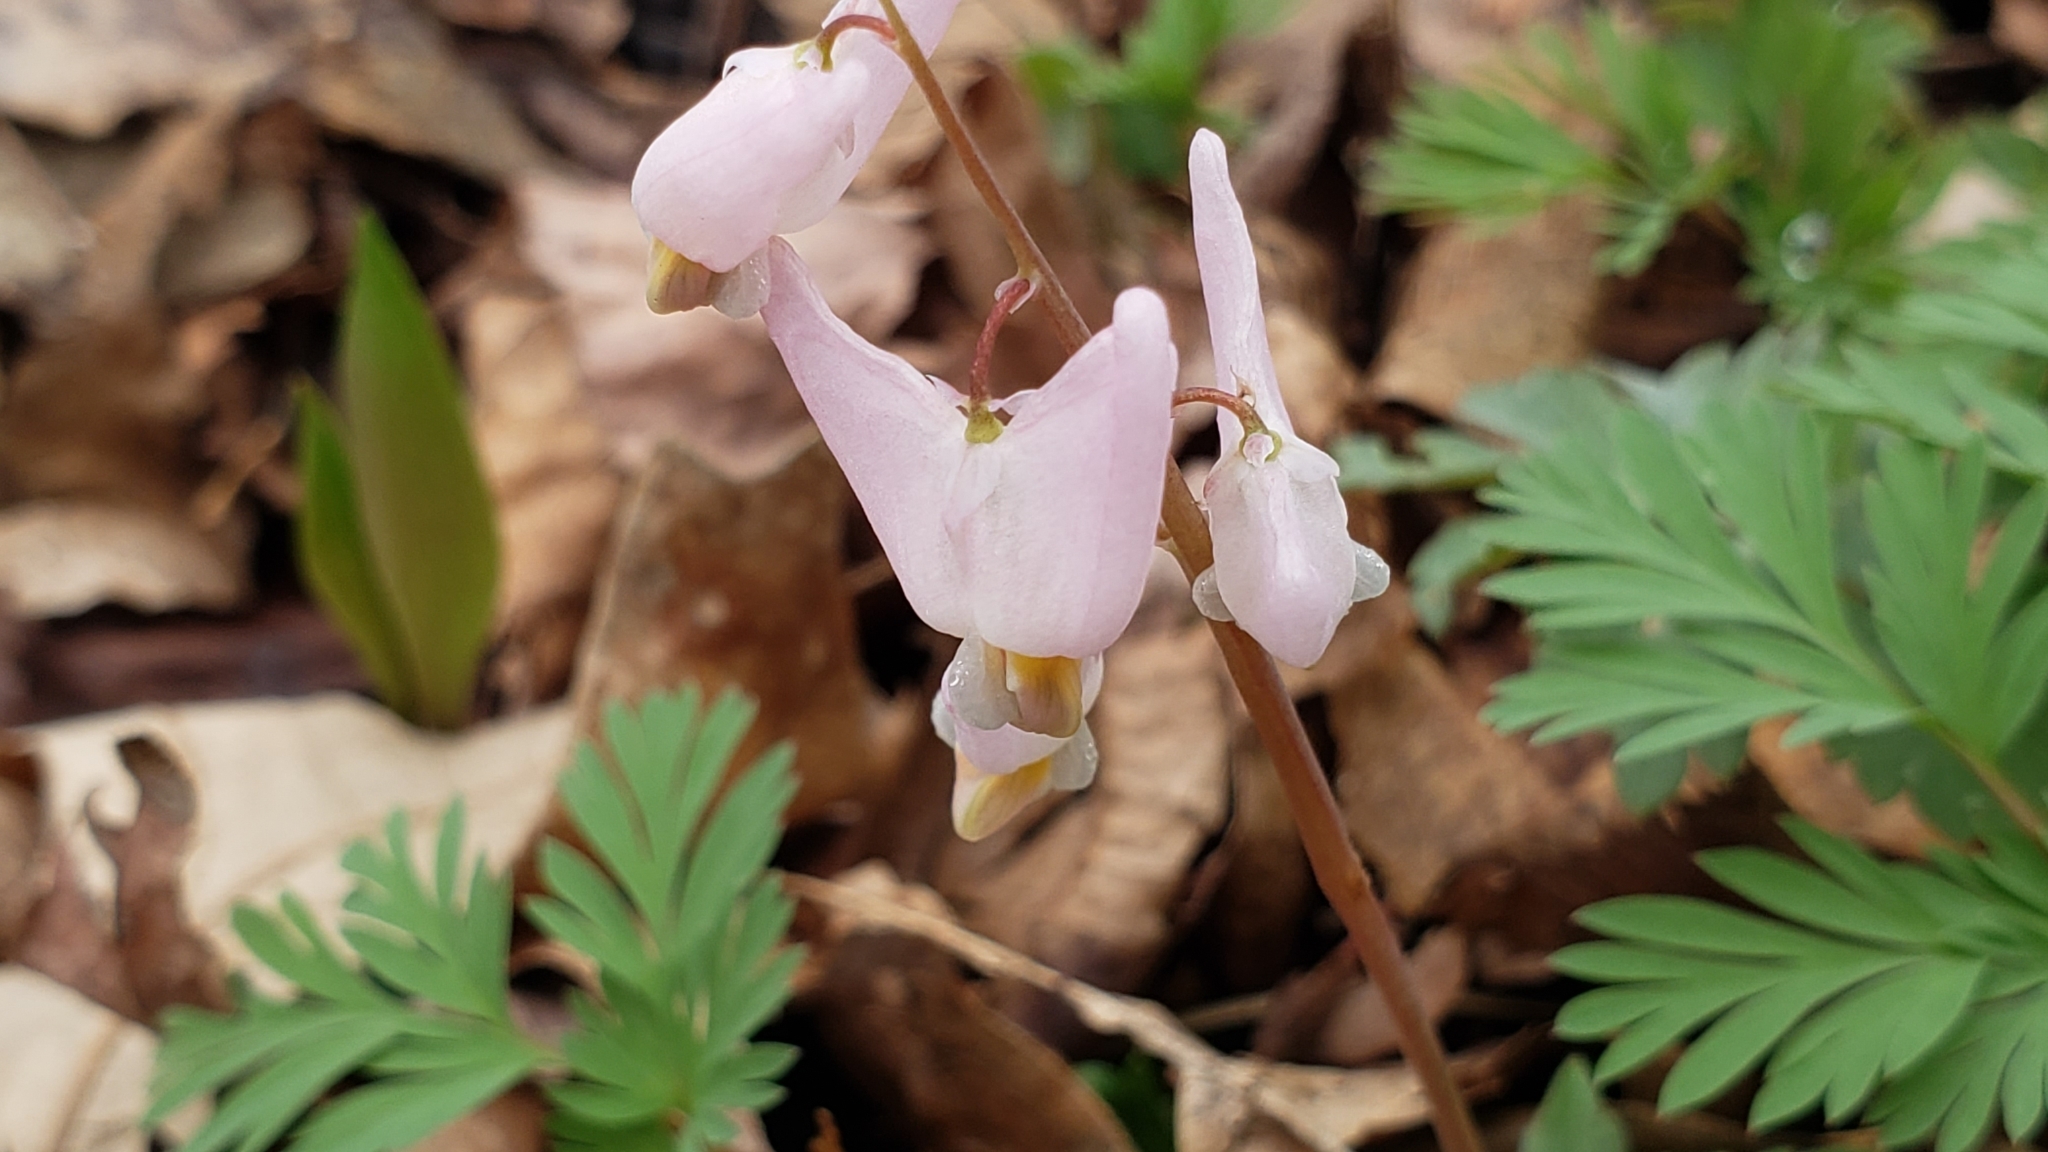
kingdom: Plantae
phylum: Tracheophyta
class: Magnoliopsida
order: Ranunculales
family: Papaveraceae
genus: Dicentra
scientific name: Dicentra cucullaria
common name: Dutchman's breeches
